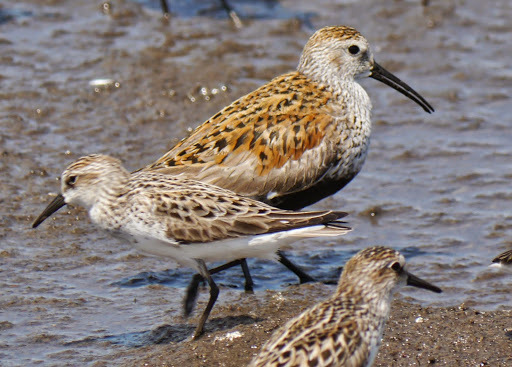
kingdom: Animalia
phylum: Chordata
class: Aves
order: Charadriiformes
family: Scolopacidae
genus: Calidris
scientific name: Calidris alpina
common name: Dunlin
